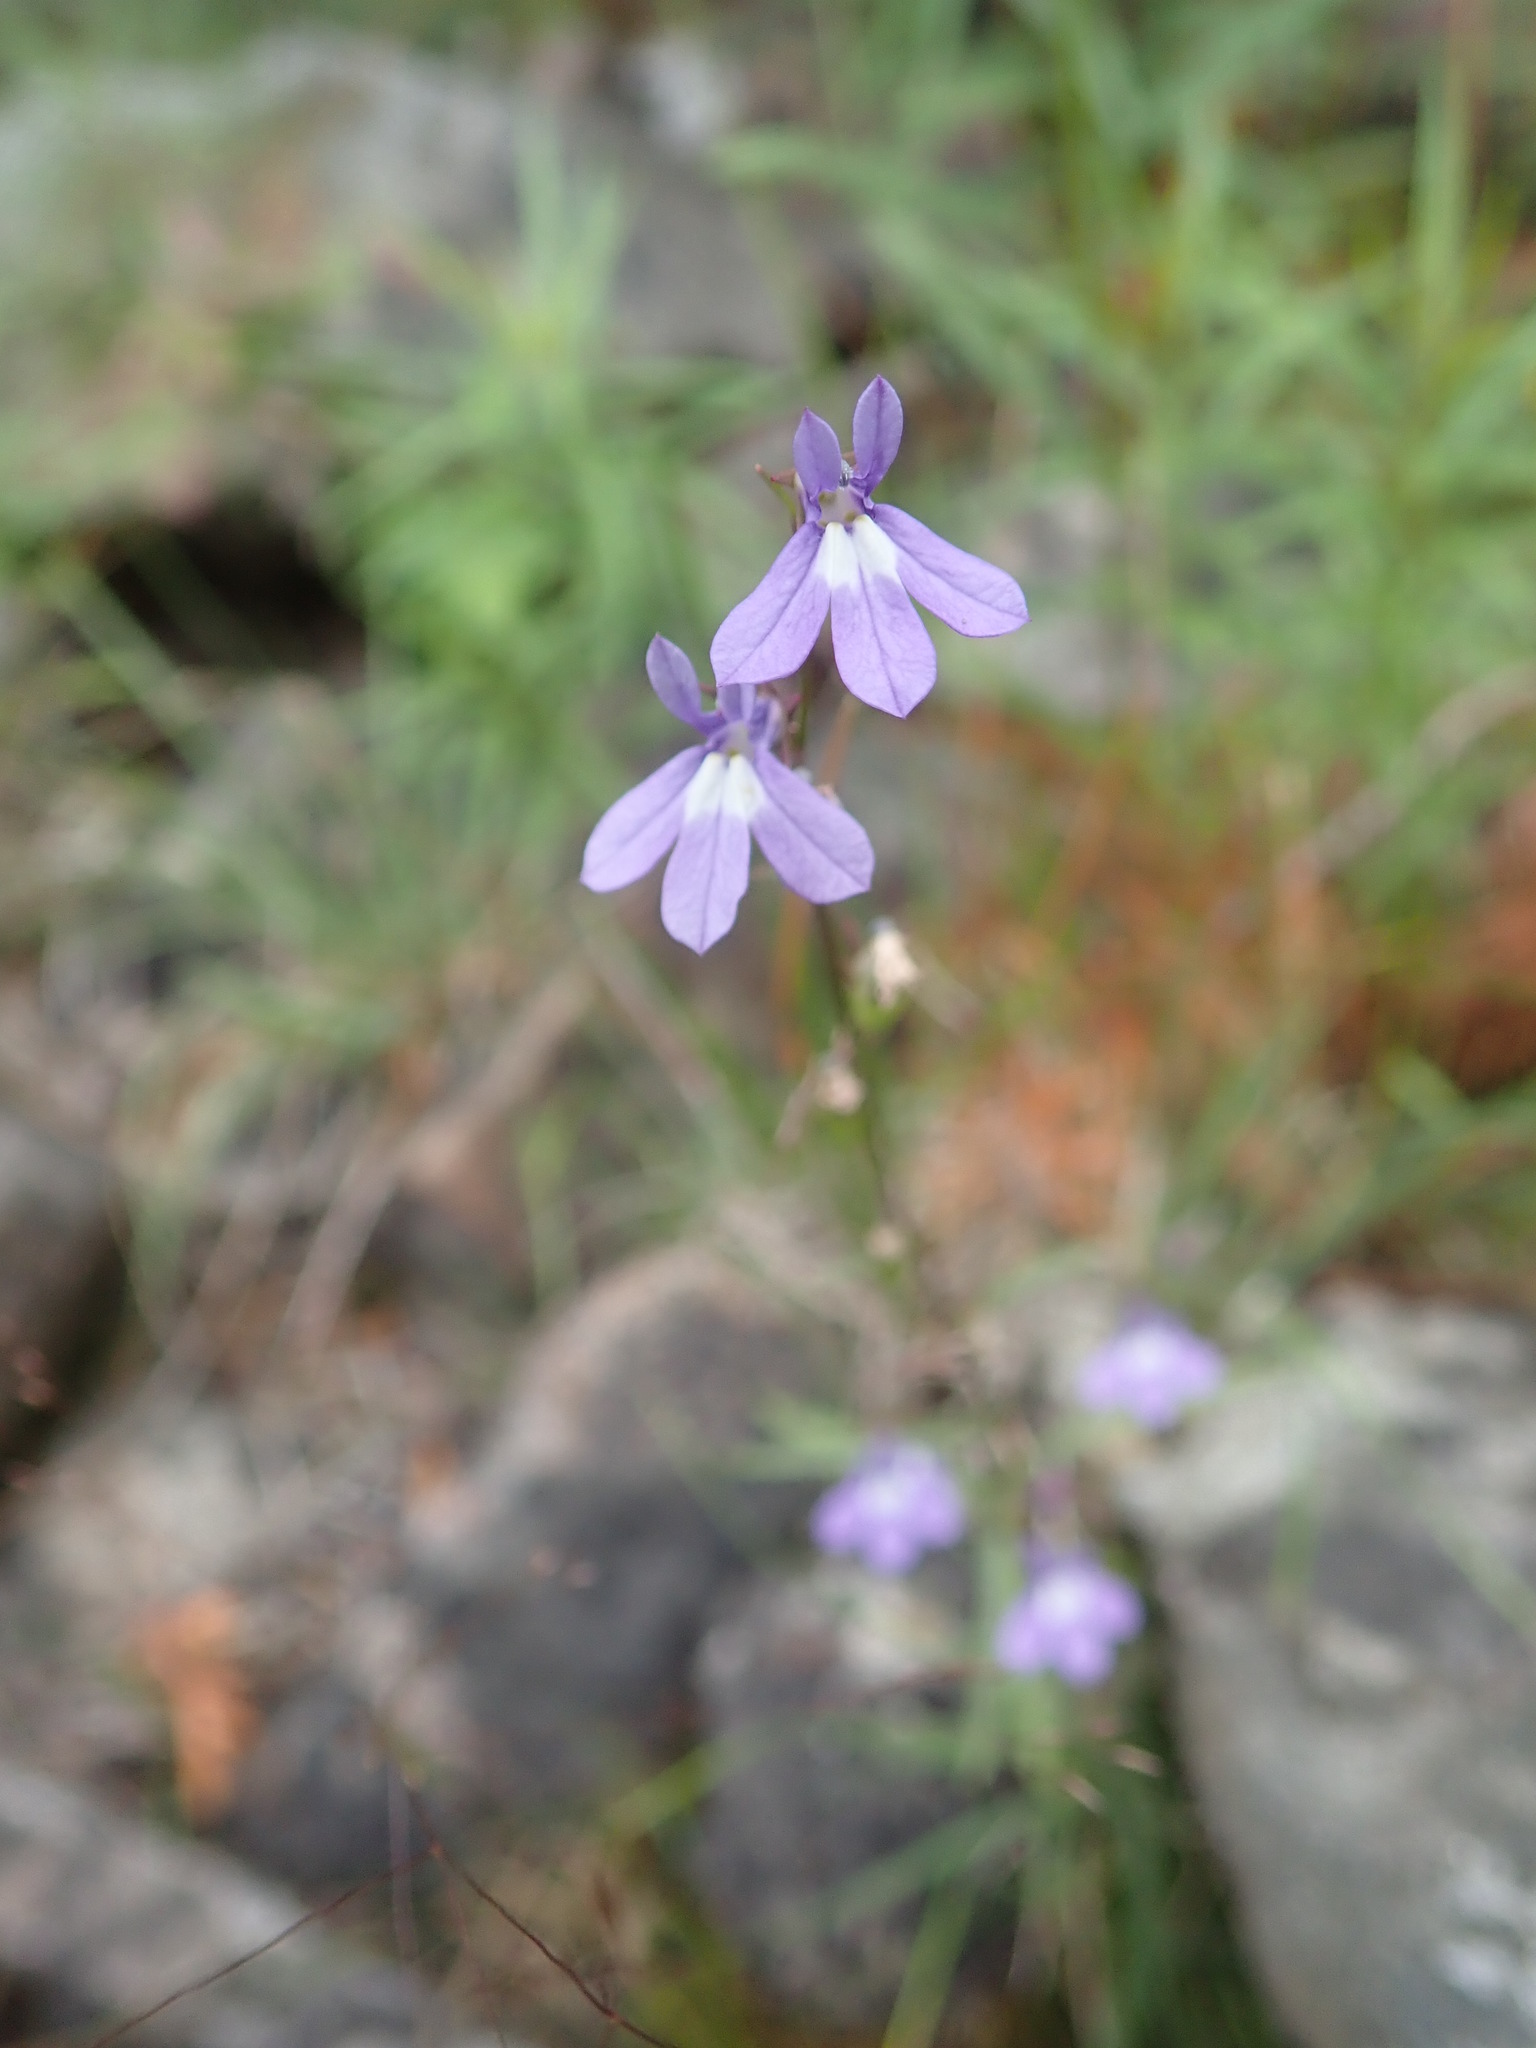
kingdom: Plantae
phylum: Tracheophyta
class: Magnoliopsida
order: Asterales
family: Campanulaceae
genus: Lobelia
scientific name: Lobelia kalmii
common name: Kalm's lobelia
